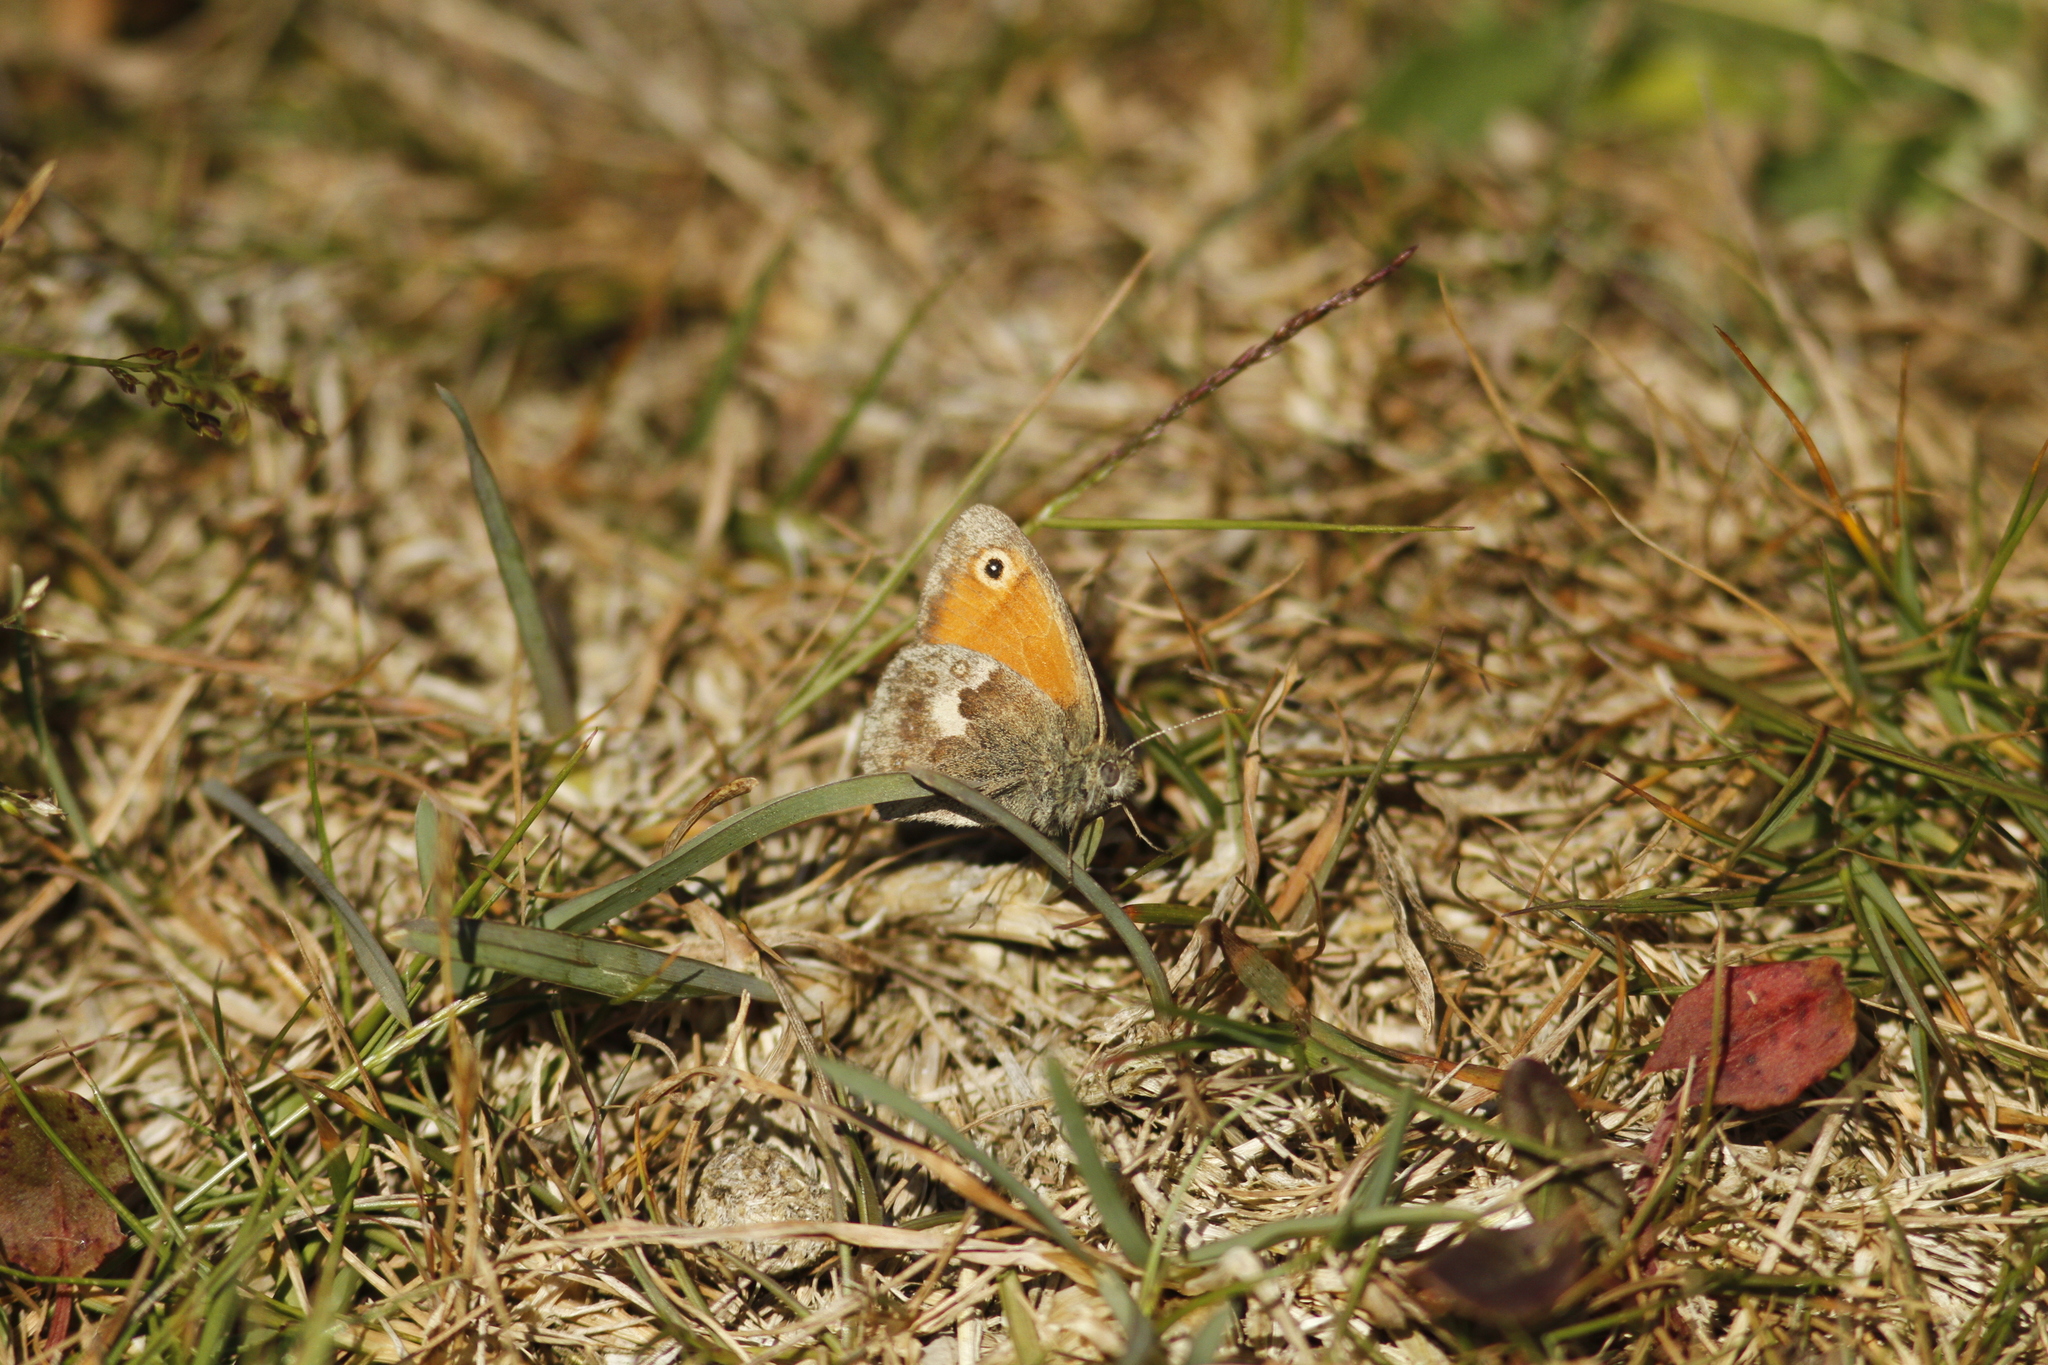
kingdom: Animalia
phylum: Arthropoda
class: Insecta
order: Lepidoptera
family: Nymphalidae
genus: Coenonympha
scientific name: Coenonympha pamphilus
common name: Small heath
